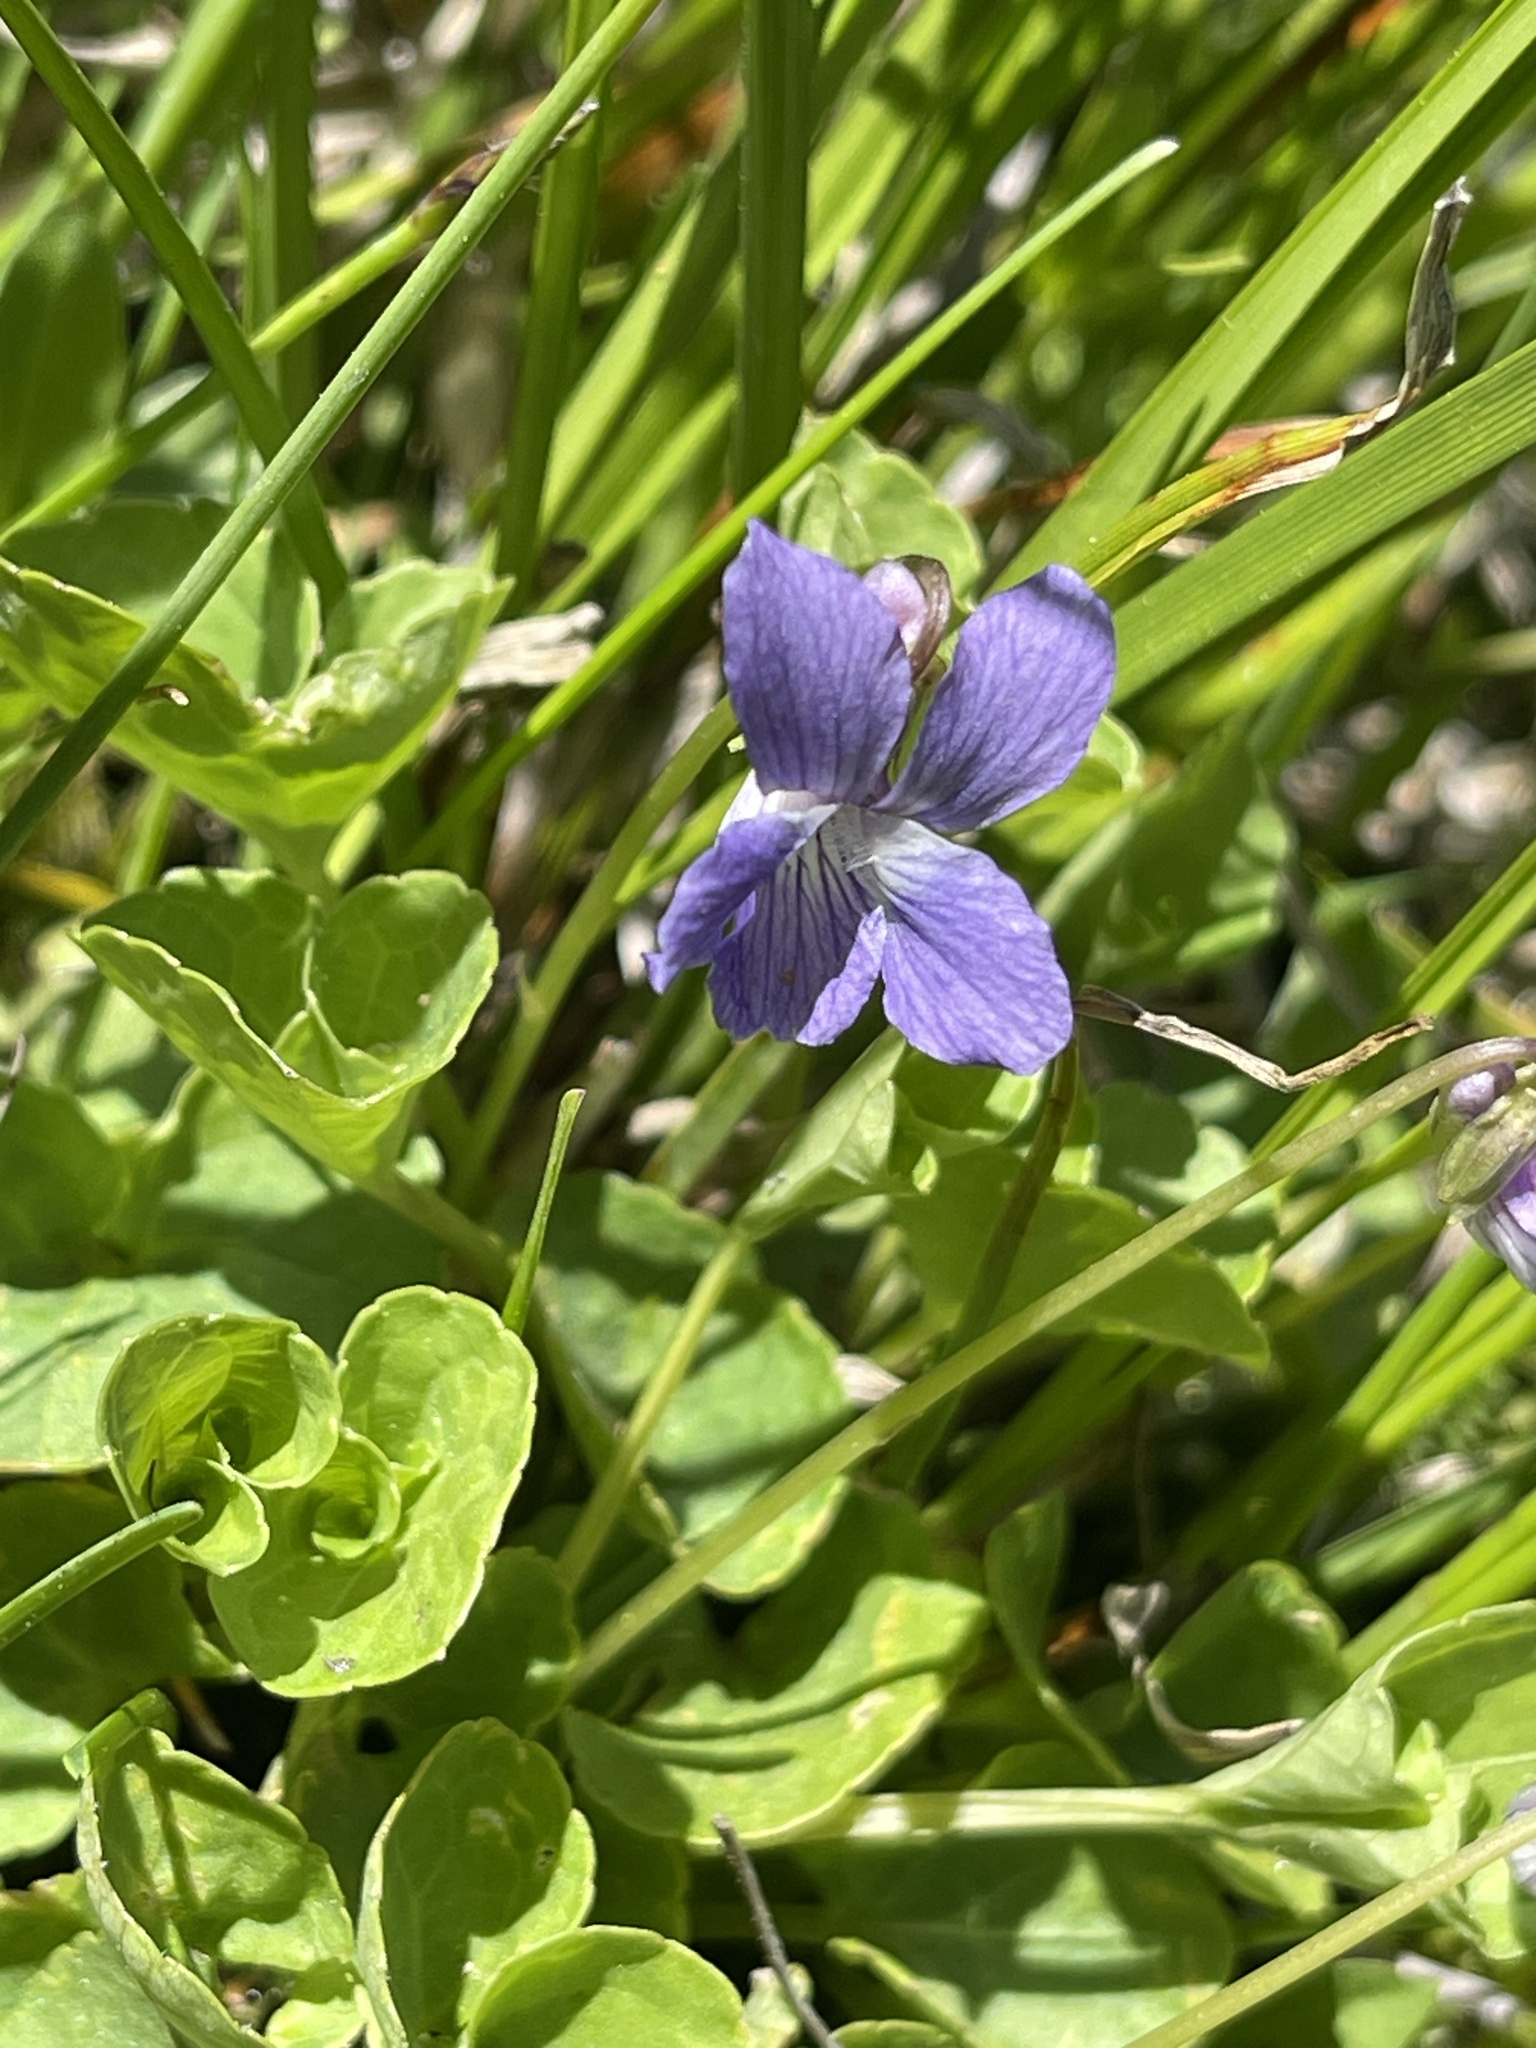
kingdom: Plantae
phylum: Tracheophyta
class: Magnoliopsida
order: Malpighiales
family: Violaceae
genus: Viola
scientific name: Viola nephrophylla
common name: Blue meadow violet
